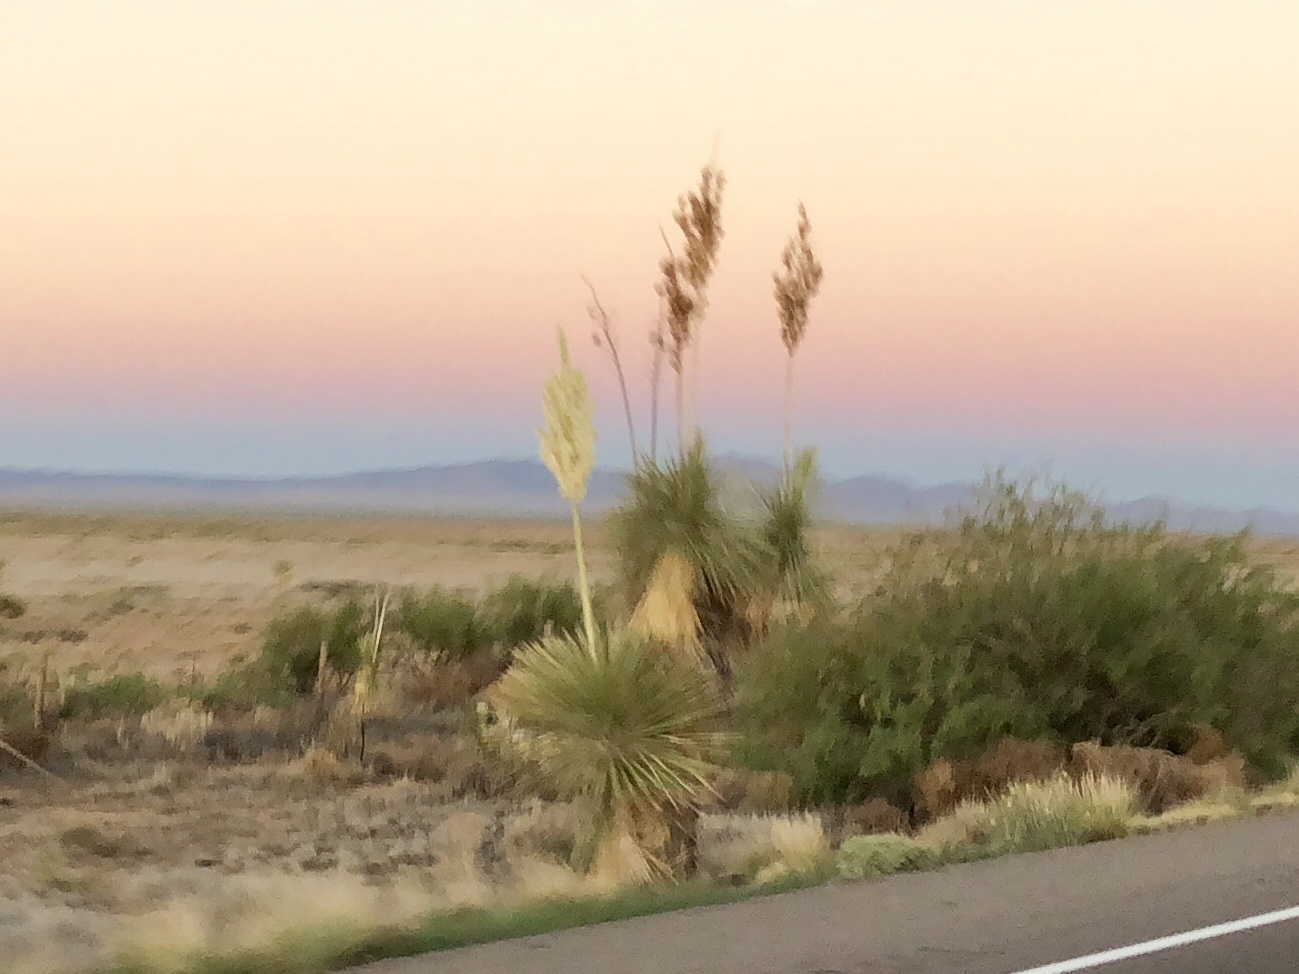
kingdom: Plantae
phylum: Tracheophyta
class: Liliopsida
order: Asparagales
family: Asparagaceae
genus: Yucca
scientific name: Yucca elata
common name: Palmella
